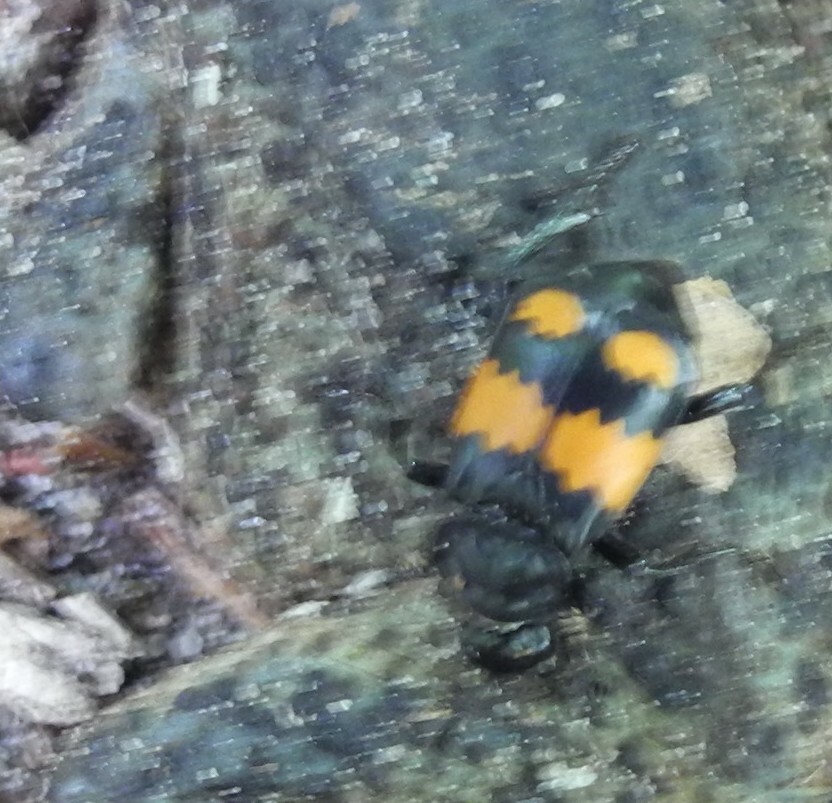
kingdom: Animalia
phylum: Arthropoda
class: Insecta
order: Coleoptera
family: Staphylinidae
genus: Nicrophorus
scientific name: Nicrophorus vespilloides
